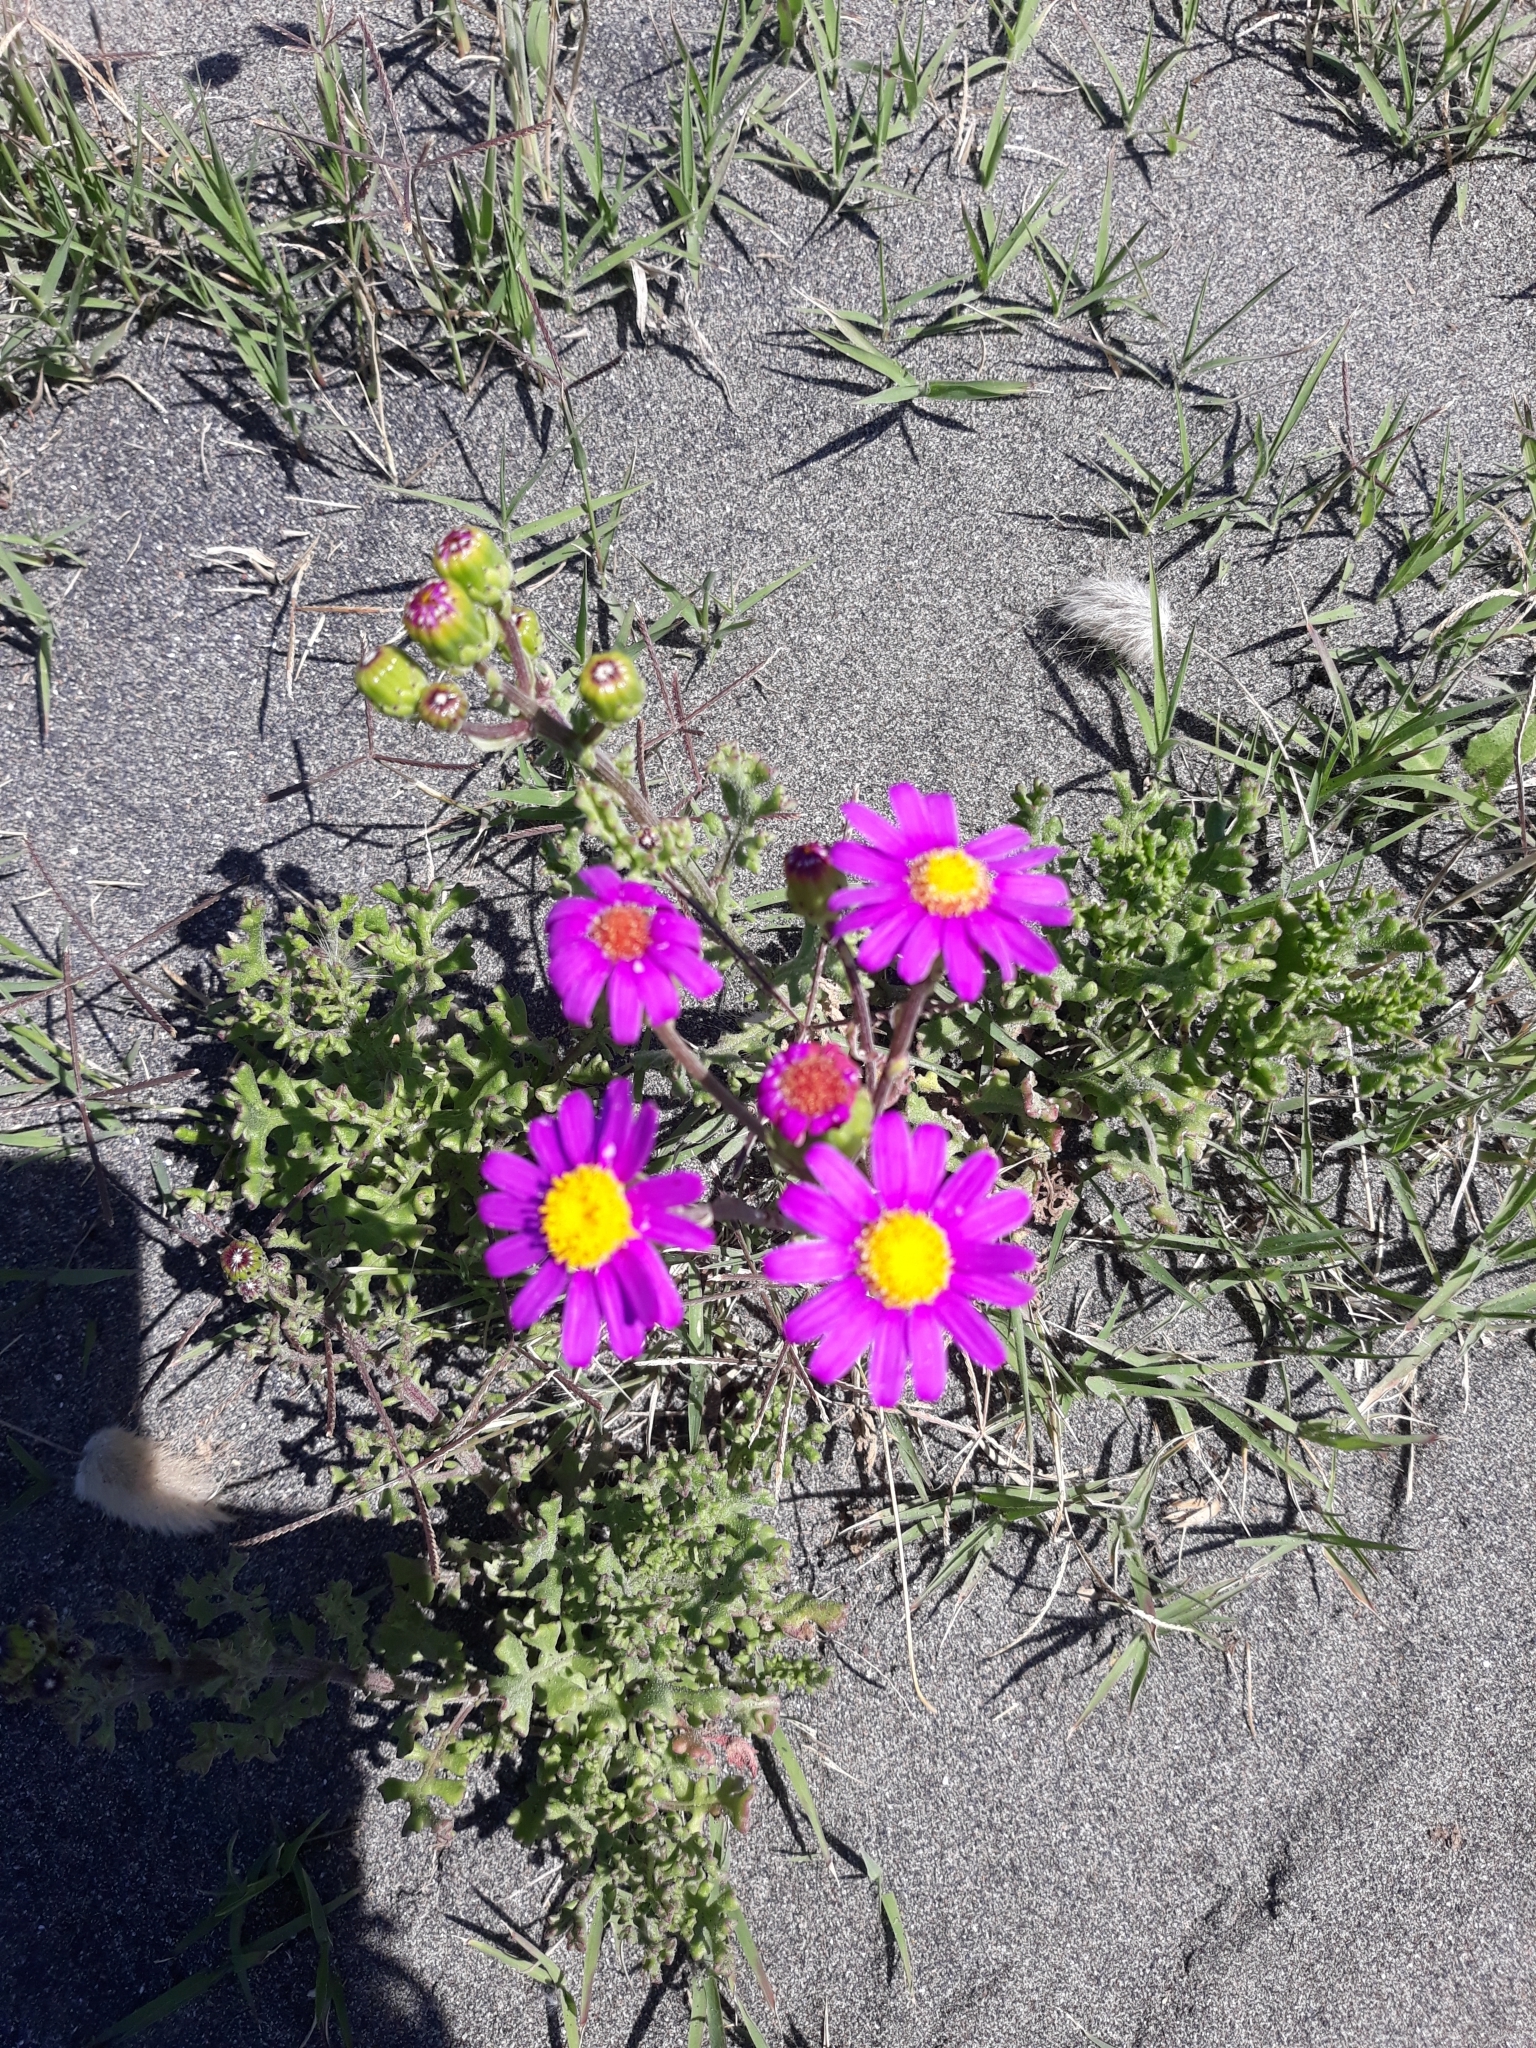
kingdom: Plantae
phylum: Tracheophyta
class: Magnoliopsida
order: Asterales
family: Asteraceae
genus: Senecio
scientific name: Senecio elegans
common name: Purple groundsel
